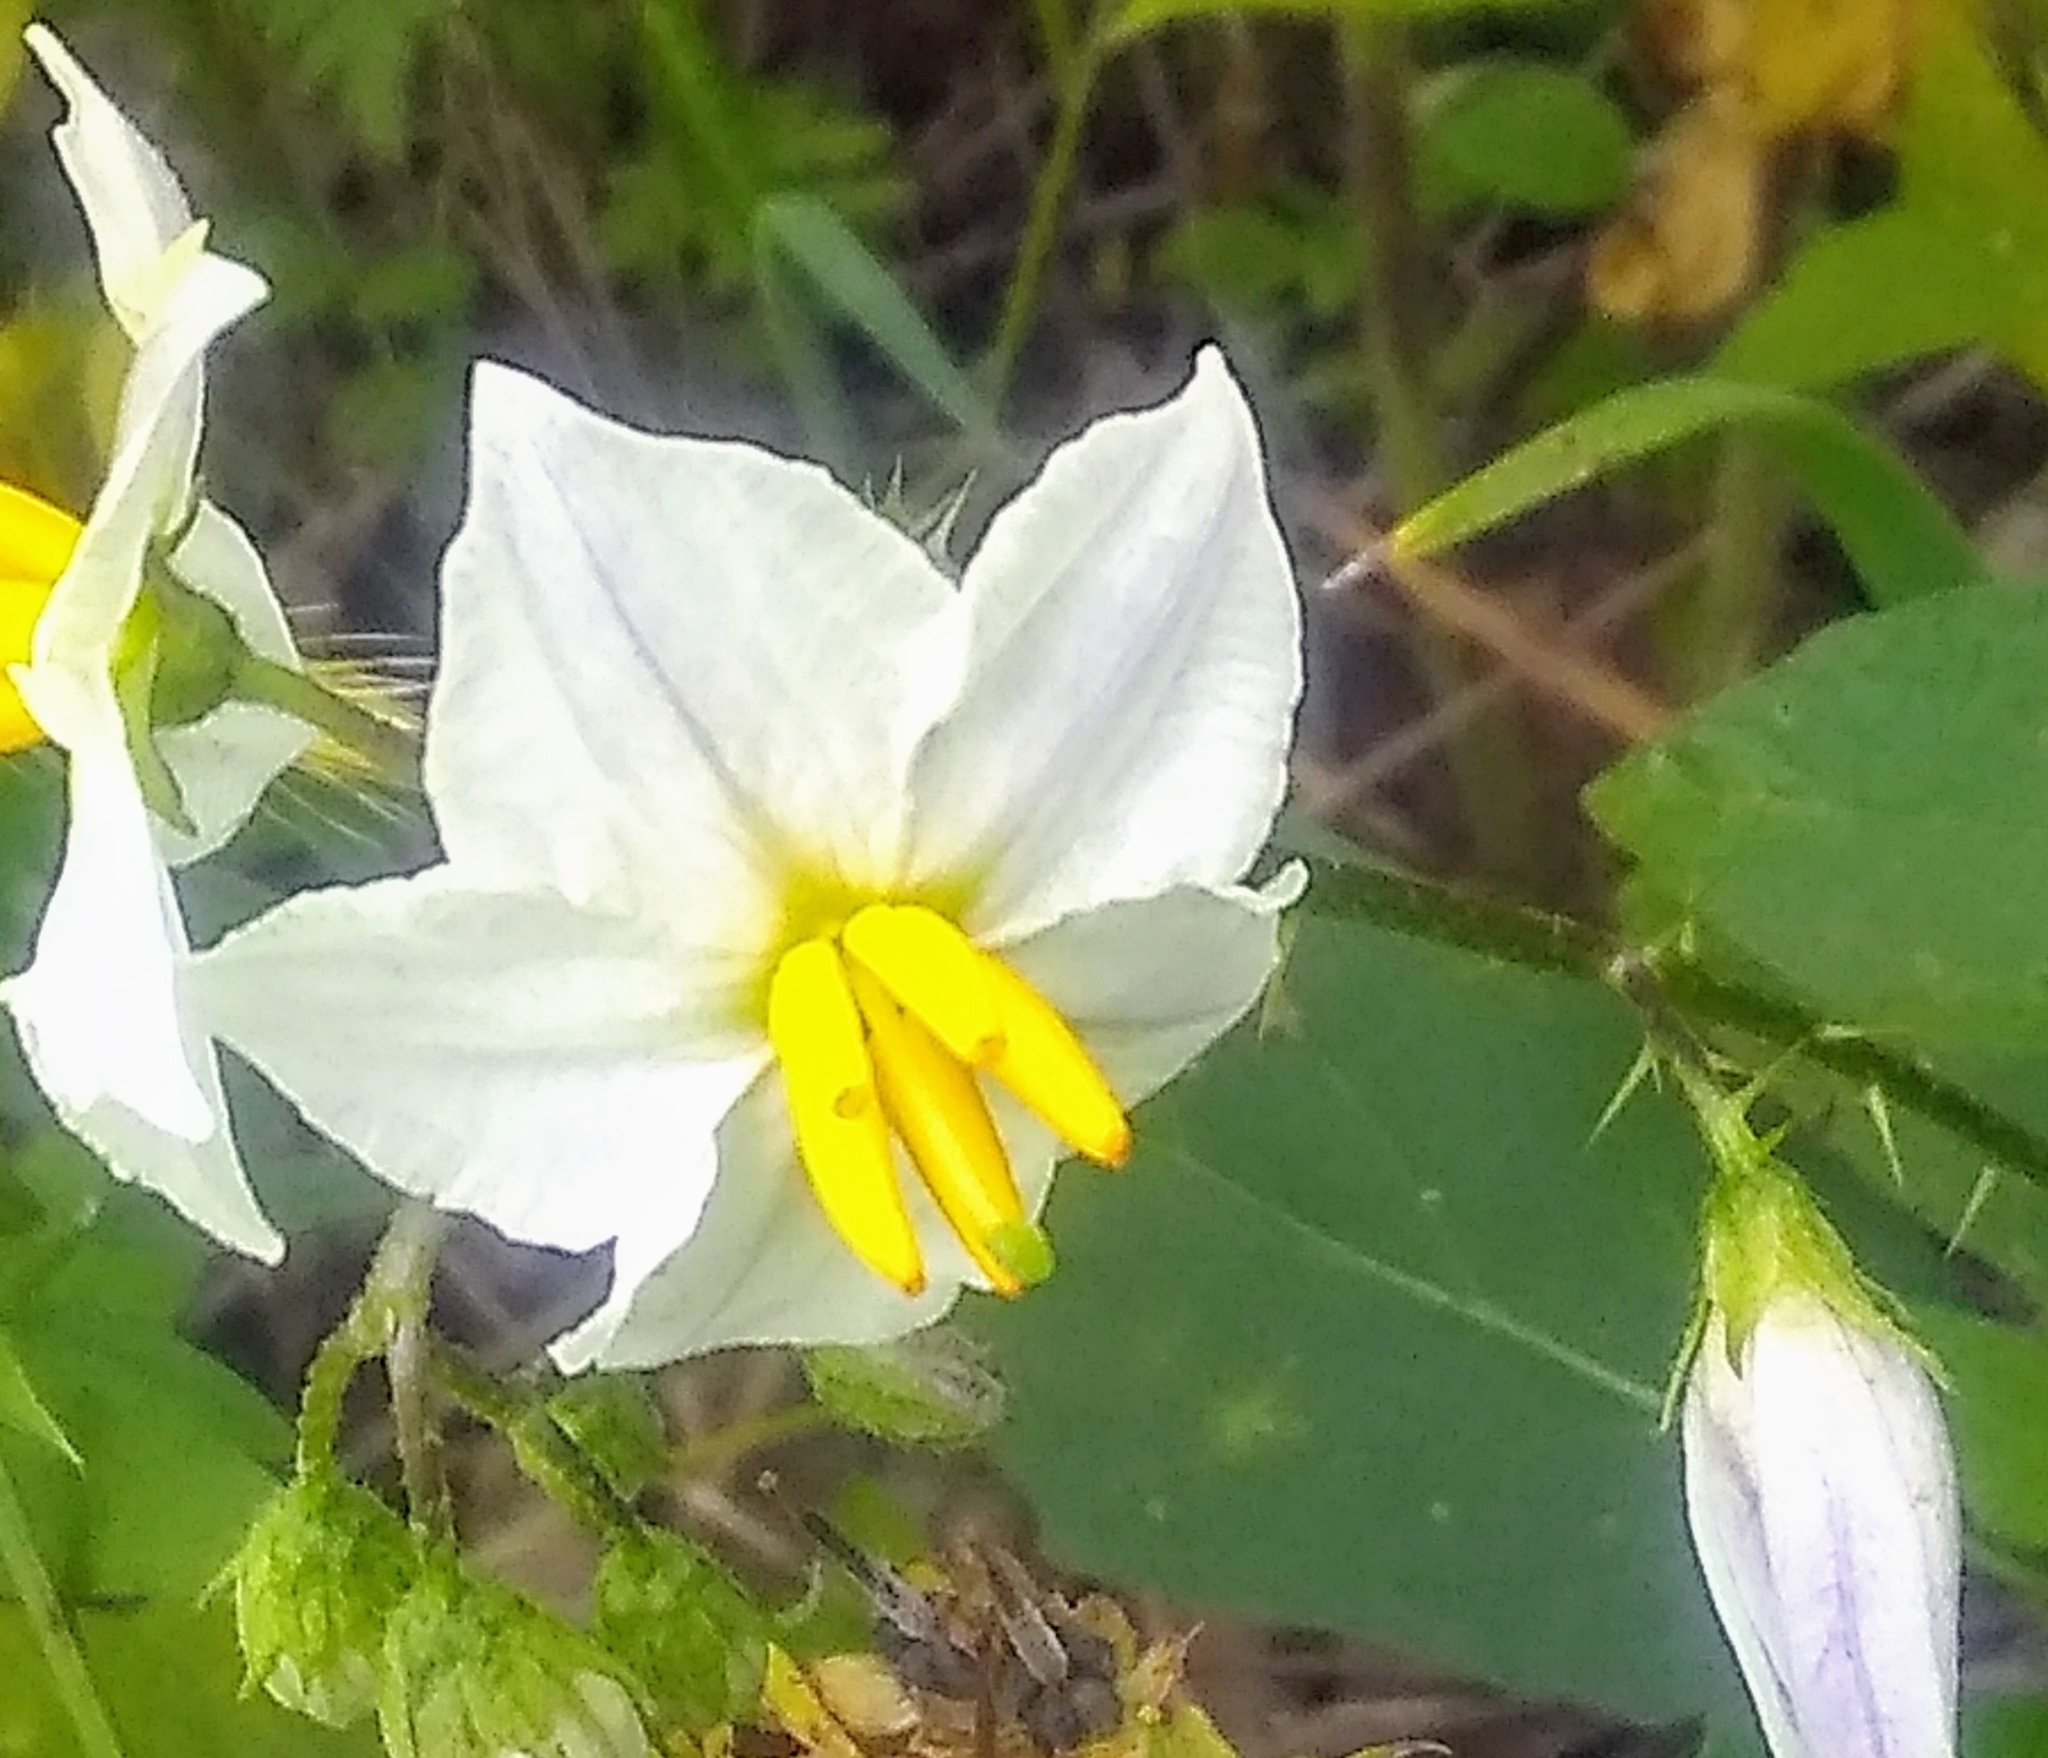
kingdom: Plantae
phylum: Tracheophyta
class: Magnoliopsida
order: Solanales
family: Solanaceae
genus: Solanum
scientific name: Solanum carolinense
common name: Horse-nettle
